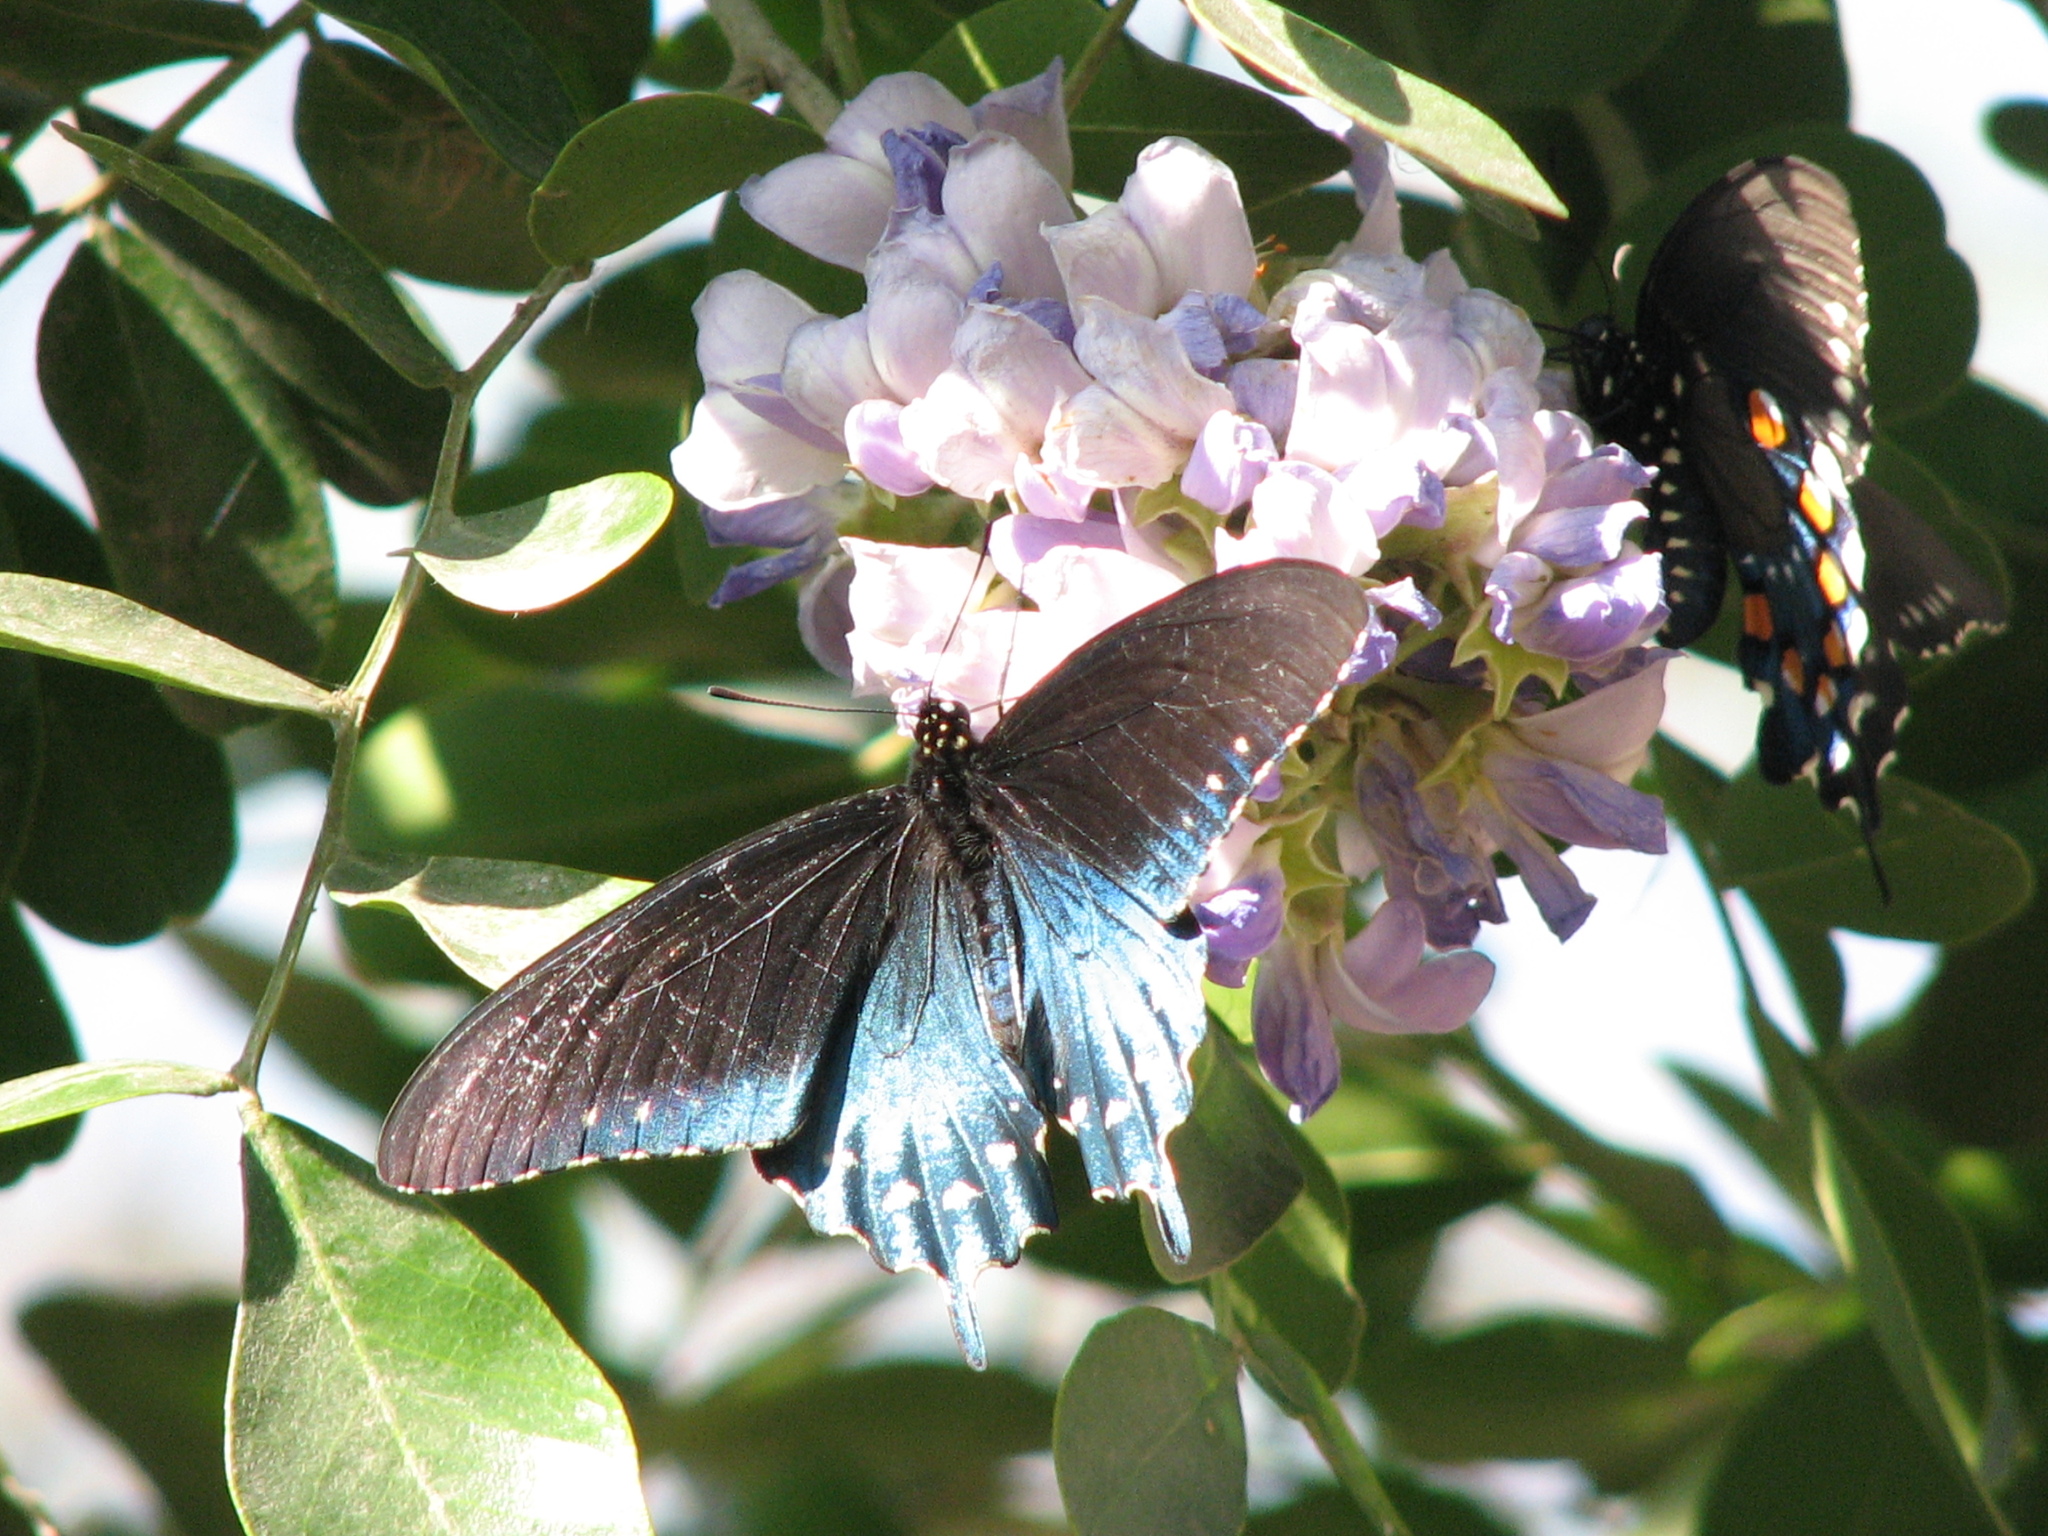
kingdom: Animalia
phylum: Arthropoda
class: Insecta
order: Lepidoptera
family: Papilionidae
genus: Battus
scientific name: Battus philenor
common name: Pipevine swallowtail
